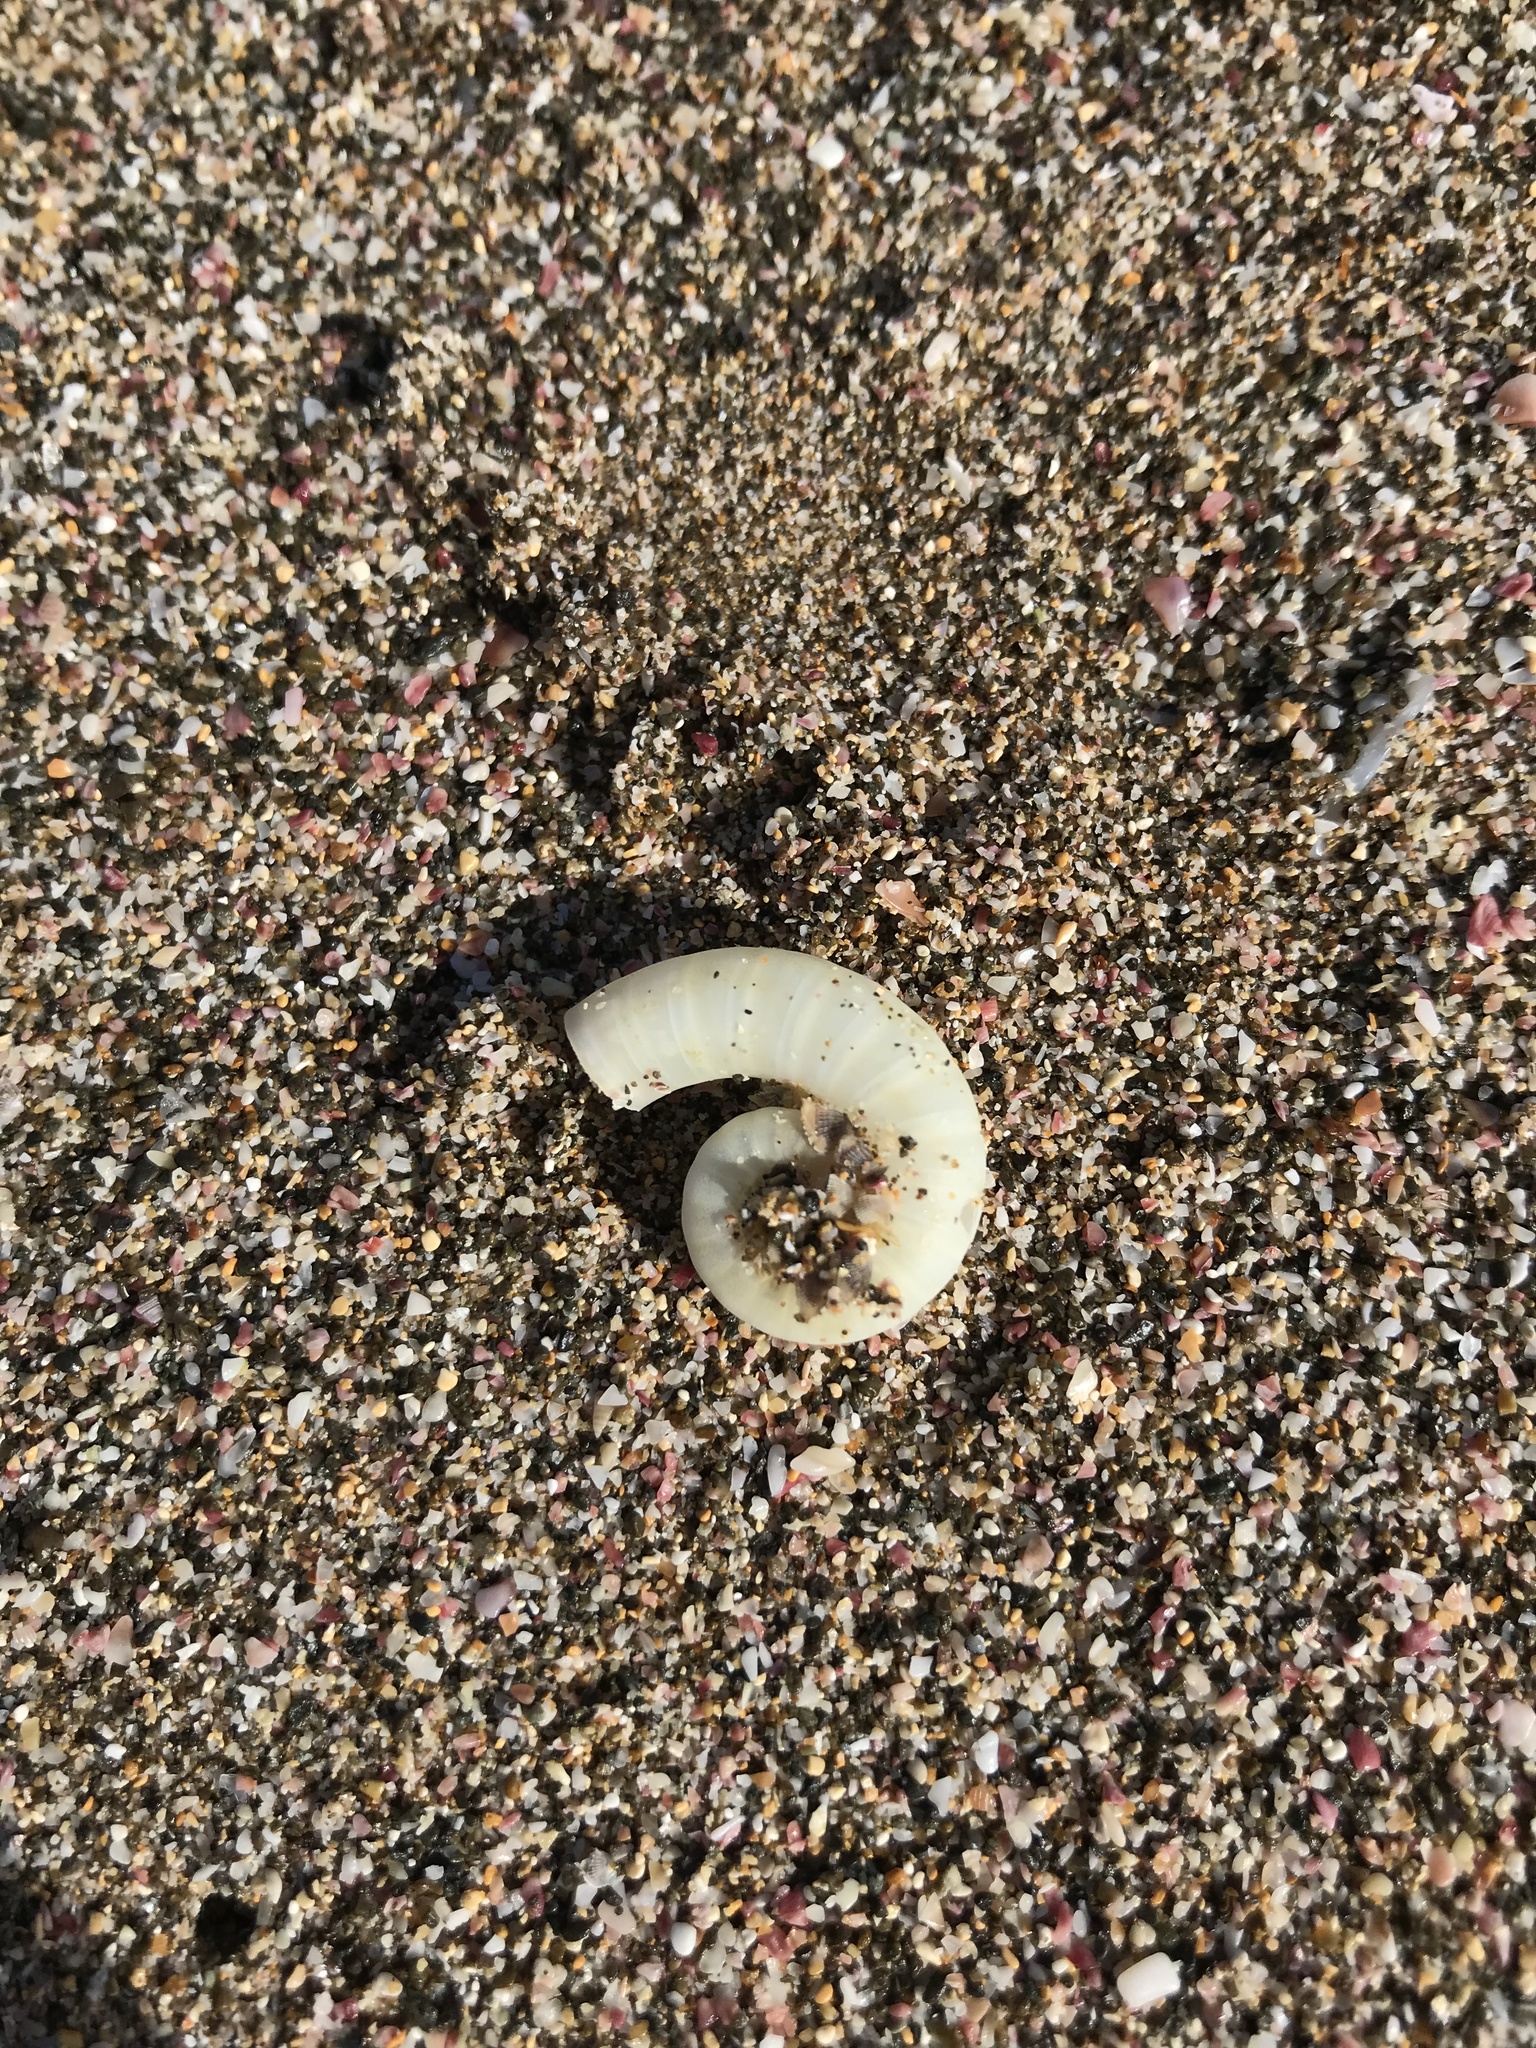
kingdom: Animalia
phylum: Mollusca
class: Cephalopoda
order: Spirulida
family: Spirulidae
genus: Spirula
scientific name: Spirula spirula
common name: Ram's horn squid
